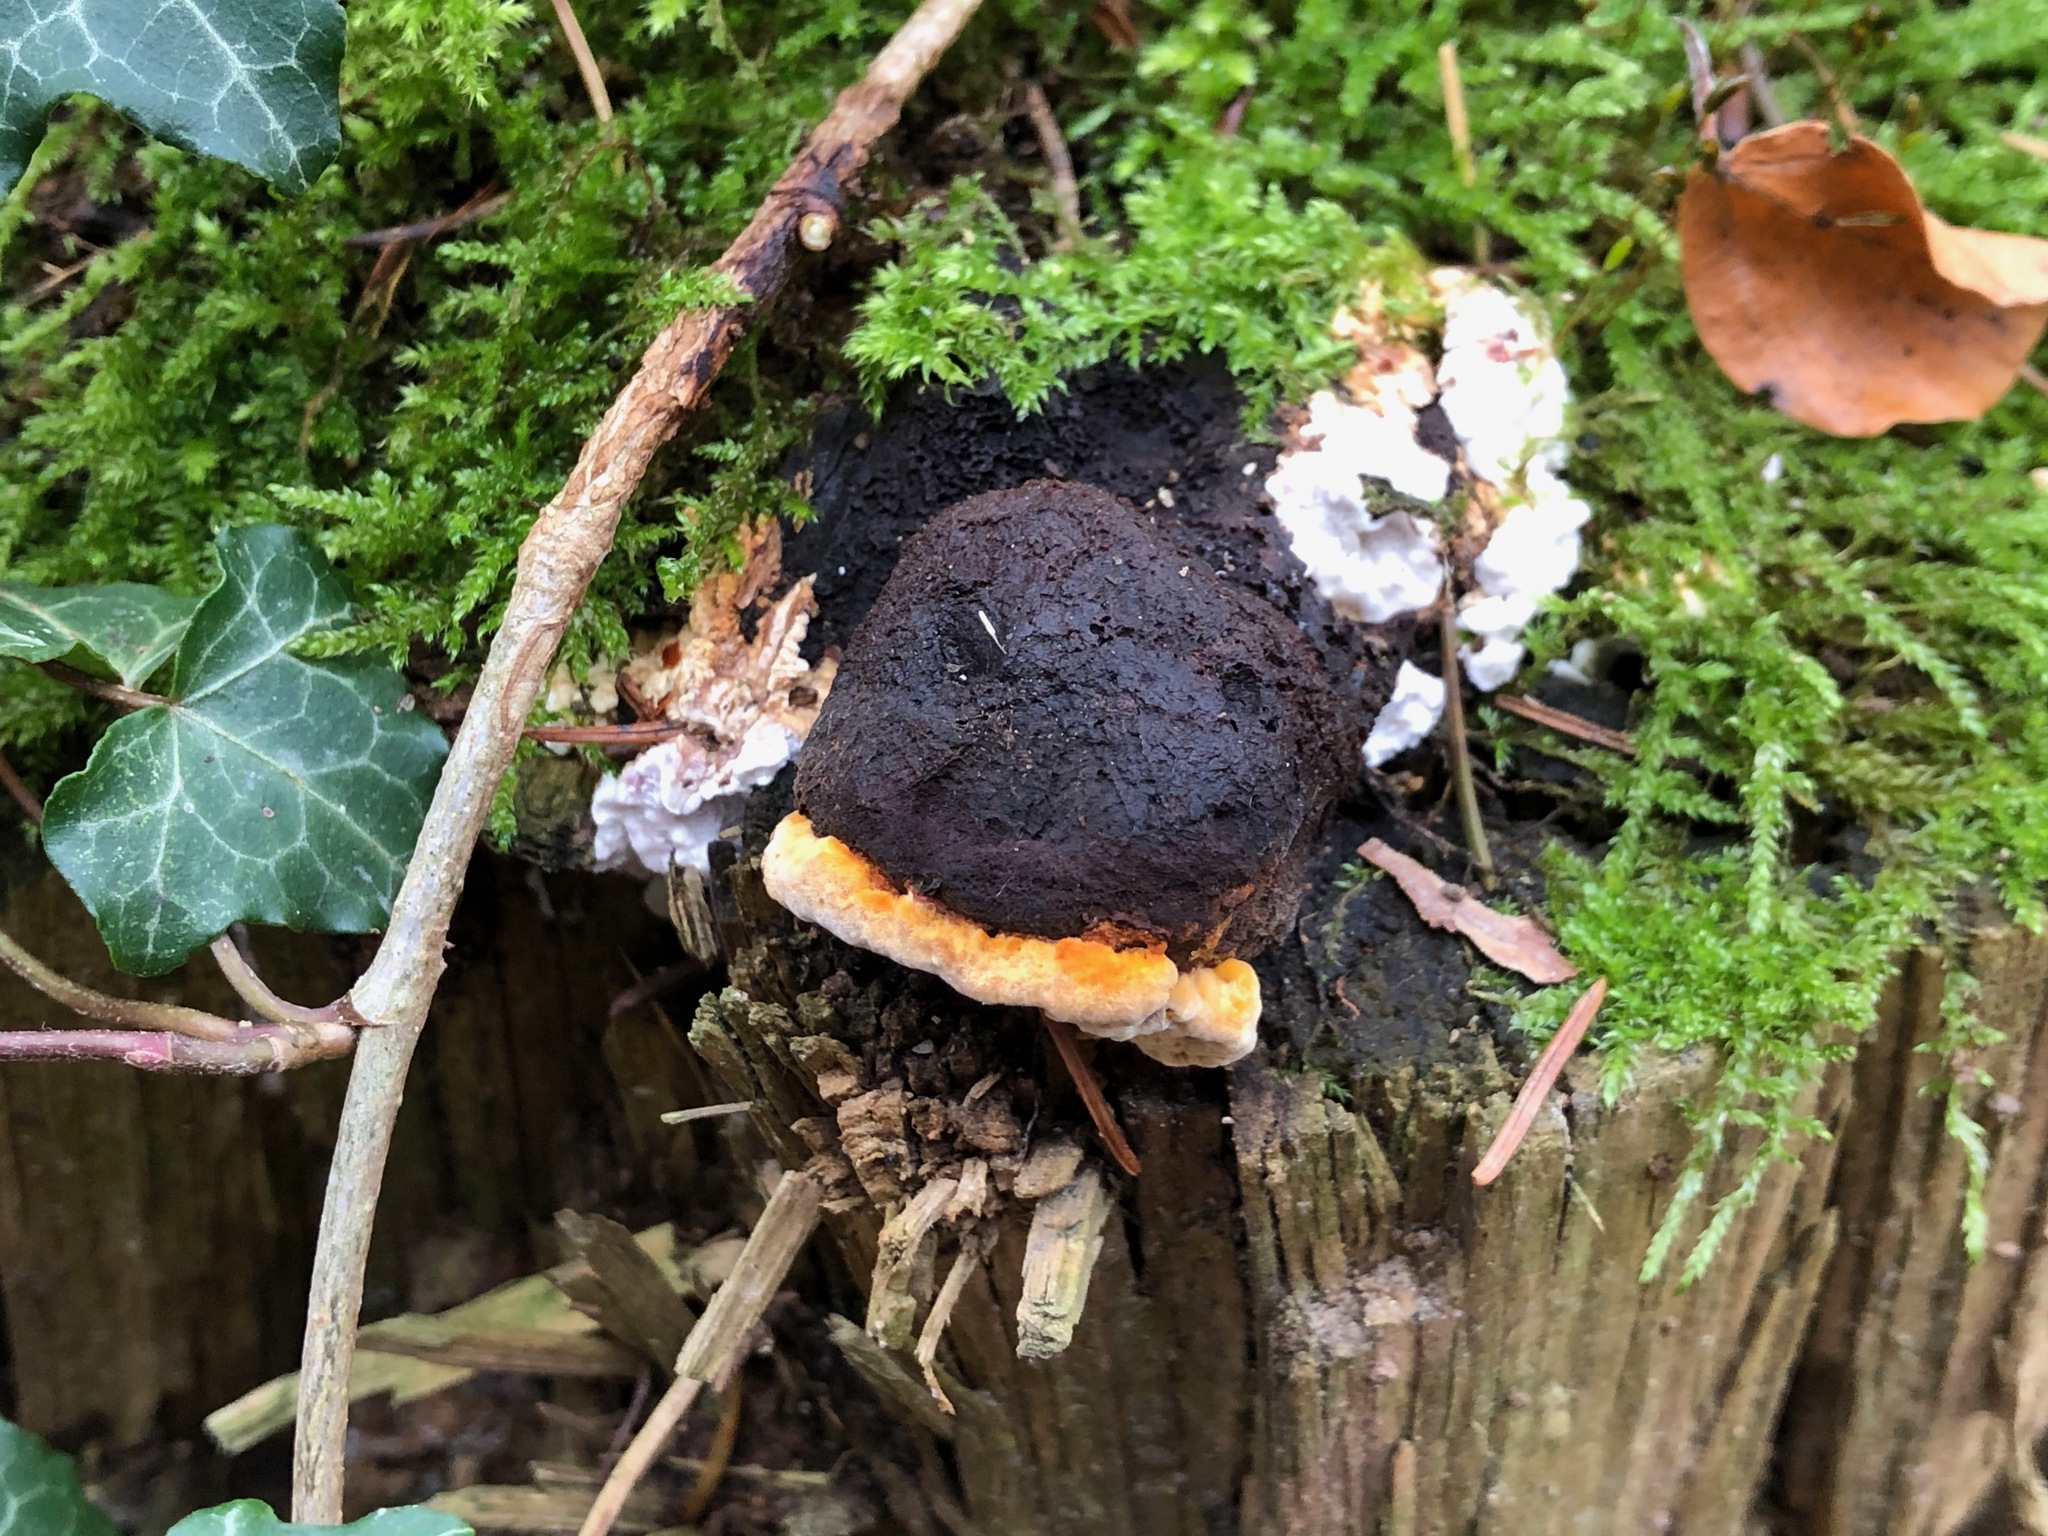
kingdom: Fungi
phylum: Basidiomycota
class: Agaricomycetes
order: Gloeophyllales
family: Gloeophyllaceae
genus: Gloeophyllum
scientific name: Gloeophyllum odoratum
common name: Anise mazegill
